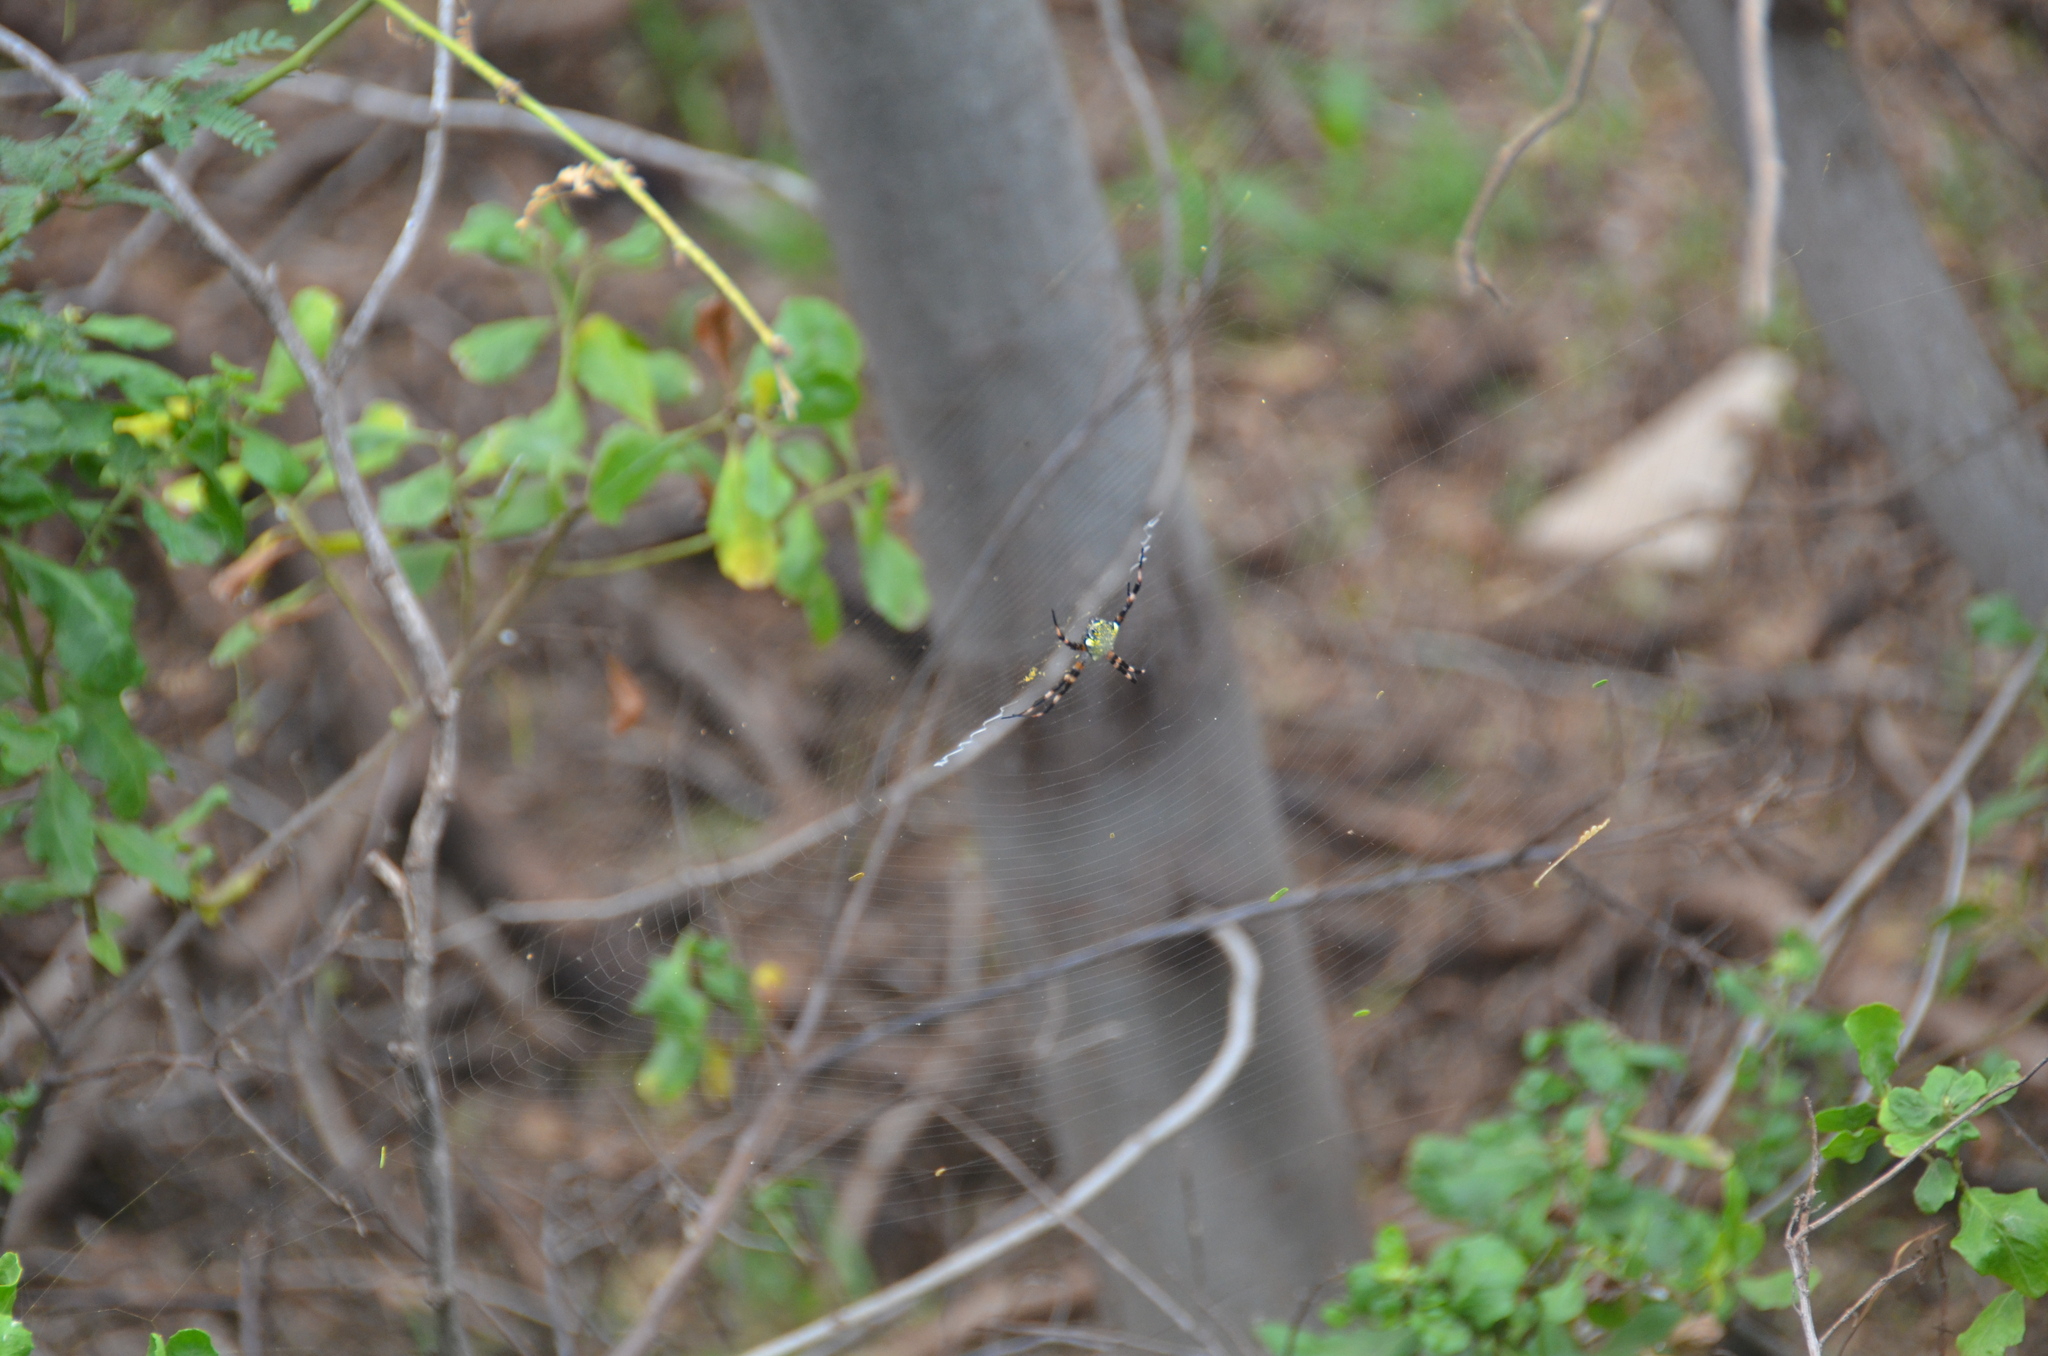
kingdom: Animalia
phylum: Arthropoda
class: Arachnida
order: Araneae
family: Araneidae
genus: Argiope
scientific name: Argiope appensa
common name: Garden spider
